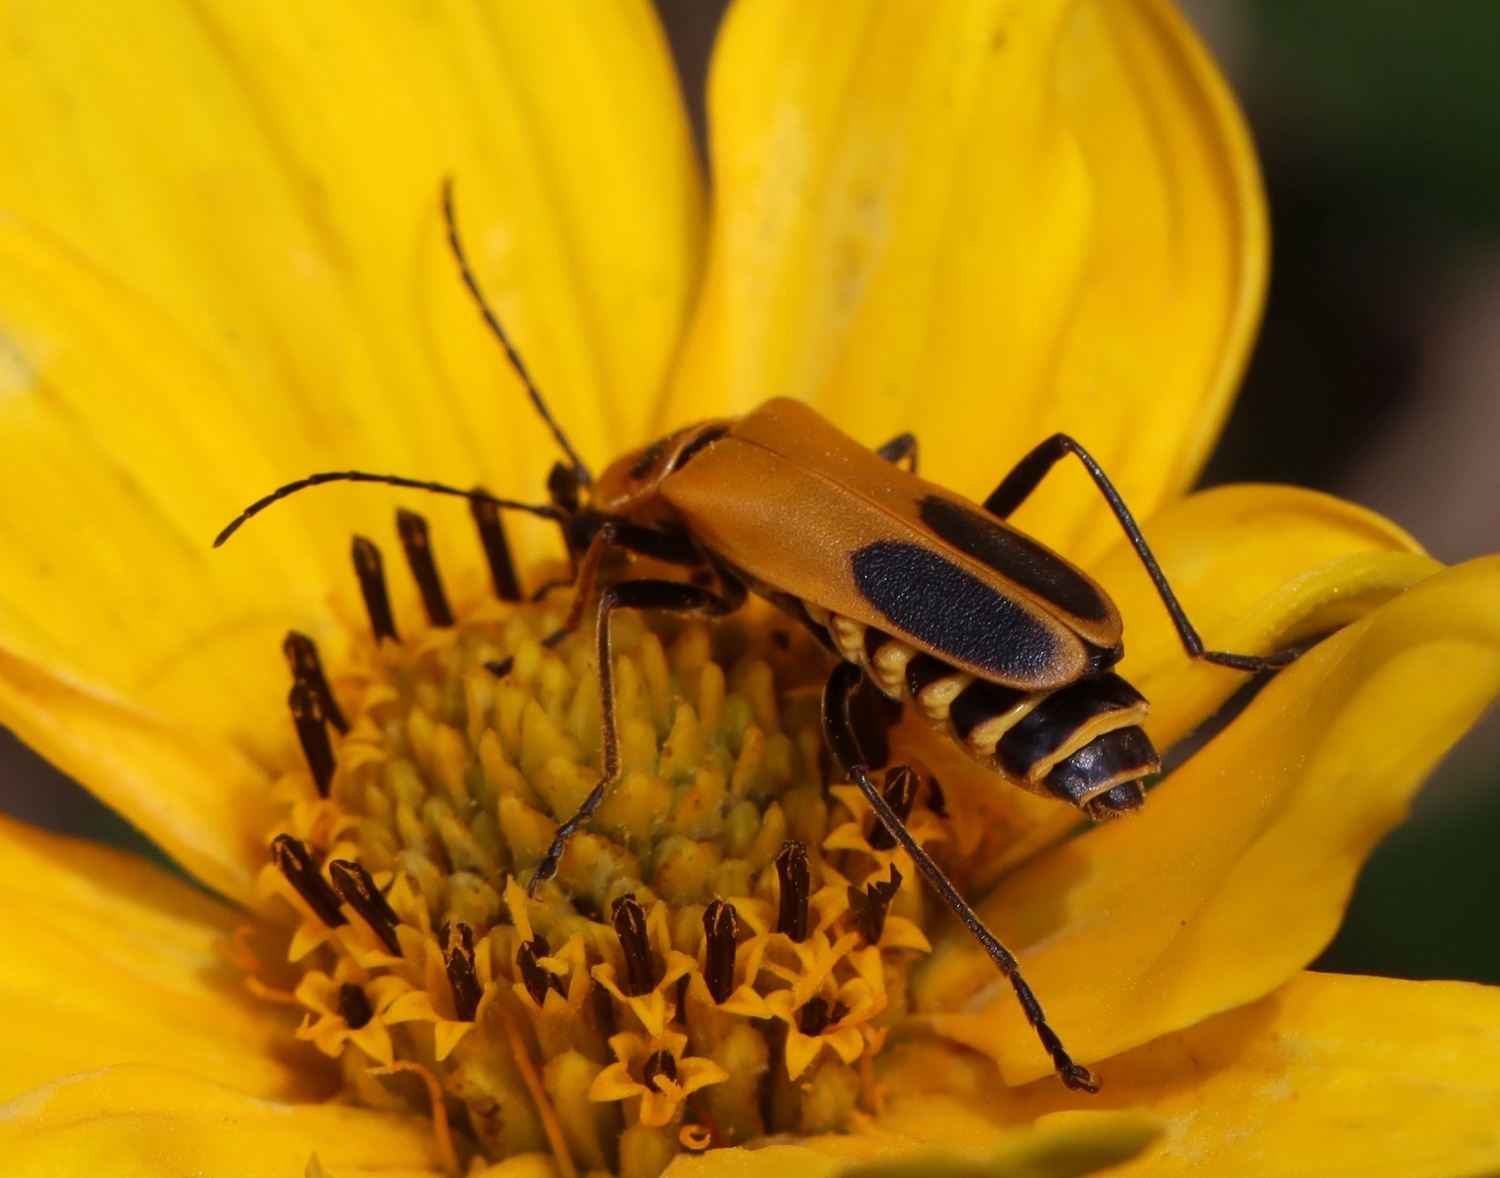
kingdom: Animalia
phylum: Arthropoda
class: Insecta
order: Coleoptera
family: Cantharidae
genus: Chauliognathus
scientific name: Chauliognathus pensylvanicus
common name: Goldenrod soldier beetle
